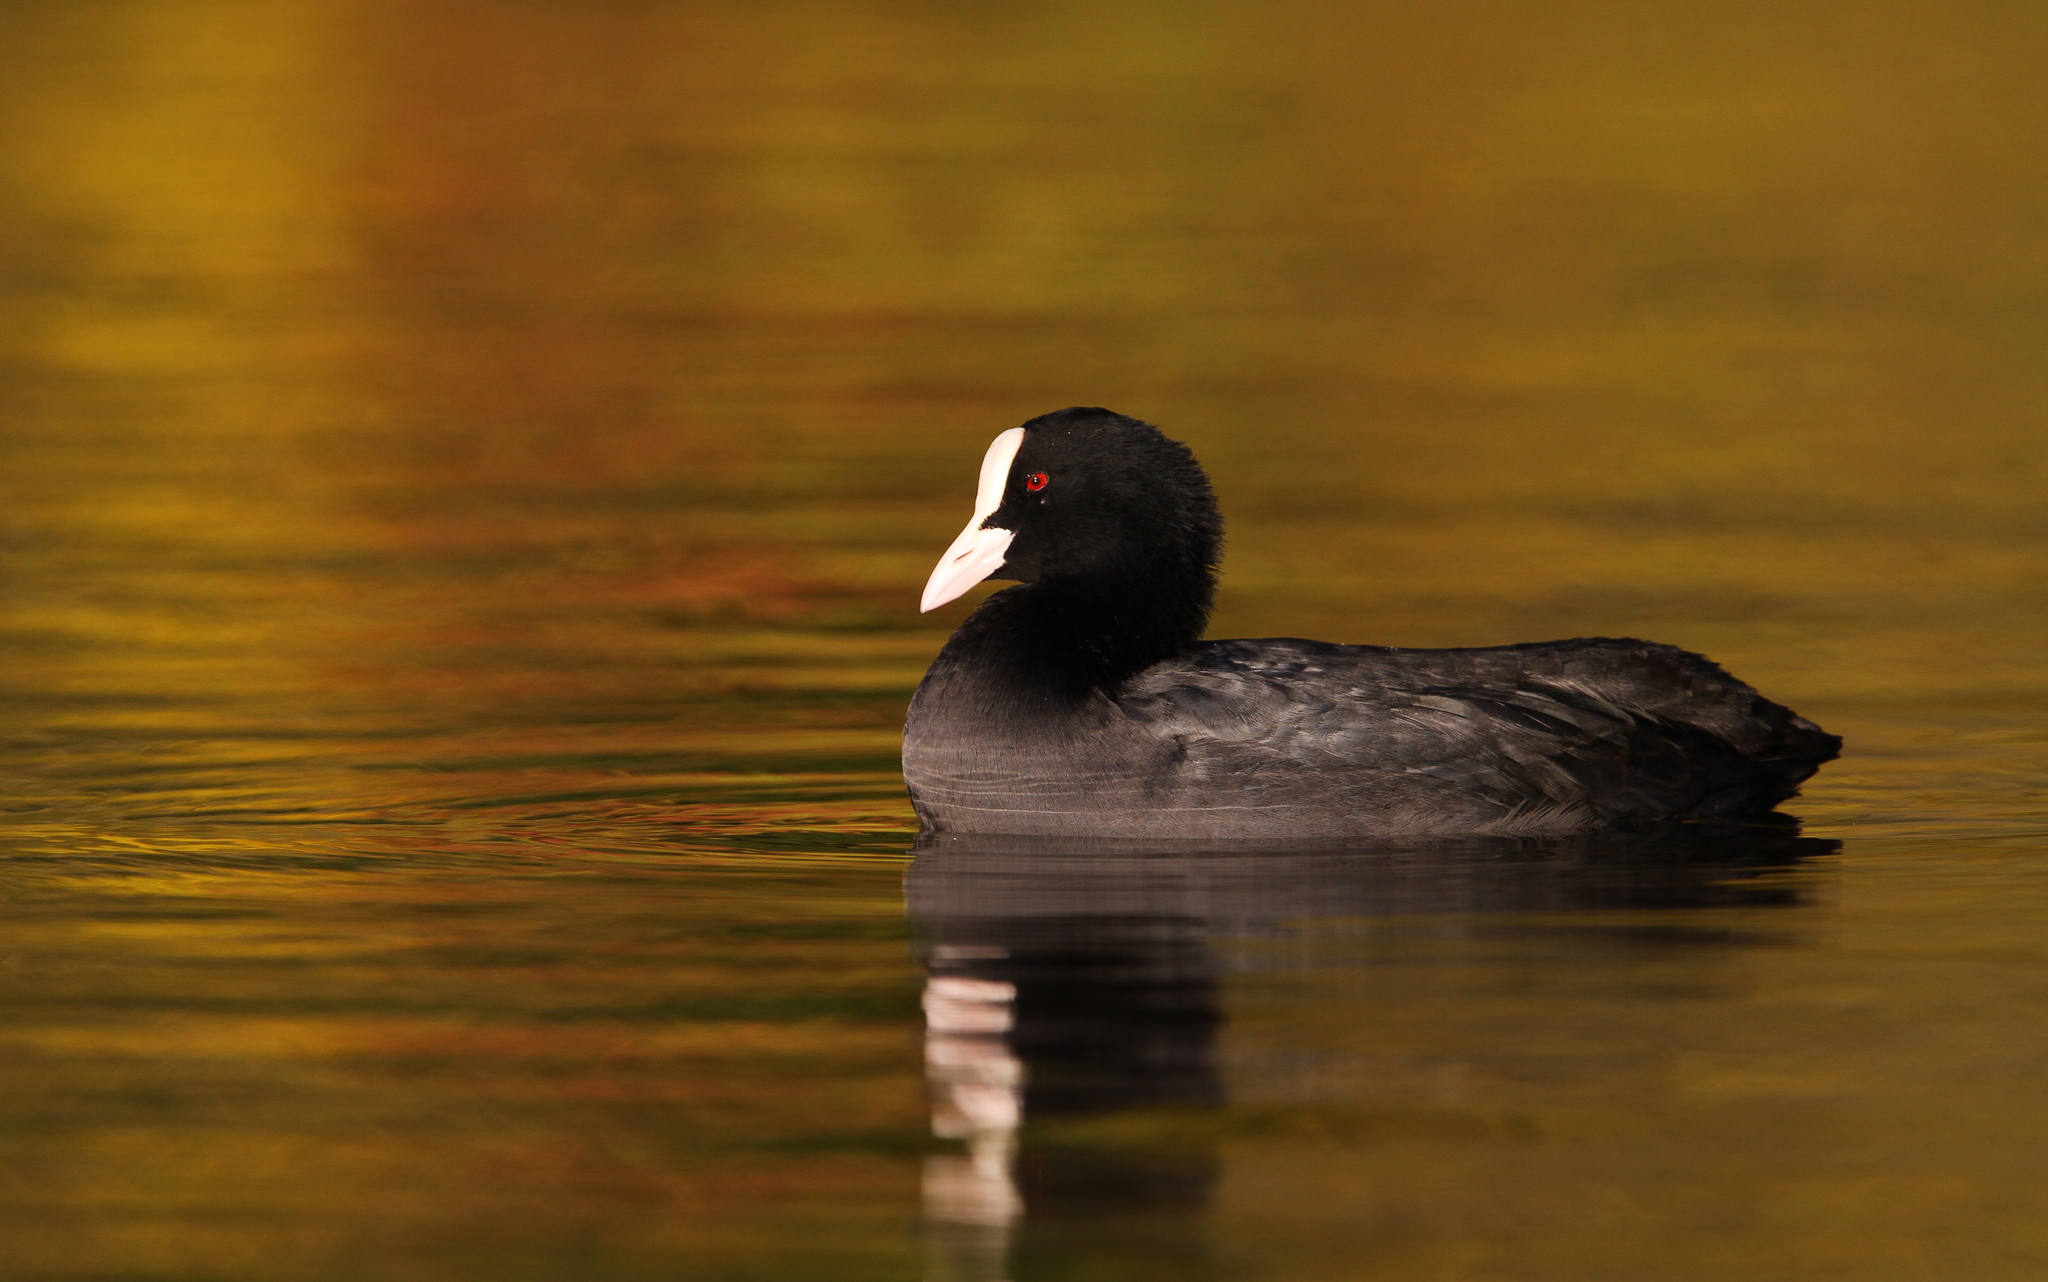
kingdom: Animalia
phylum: Chordata
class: Aves
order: Gruiformes
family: Rallidae
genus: Fulica
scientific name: Fulica atra
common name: Eurasian coot
